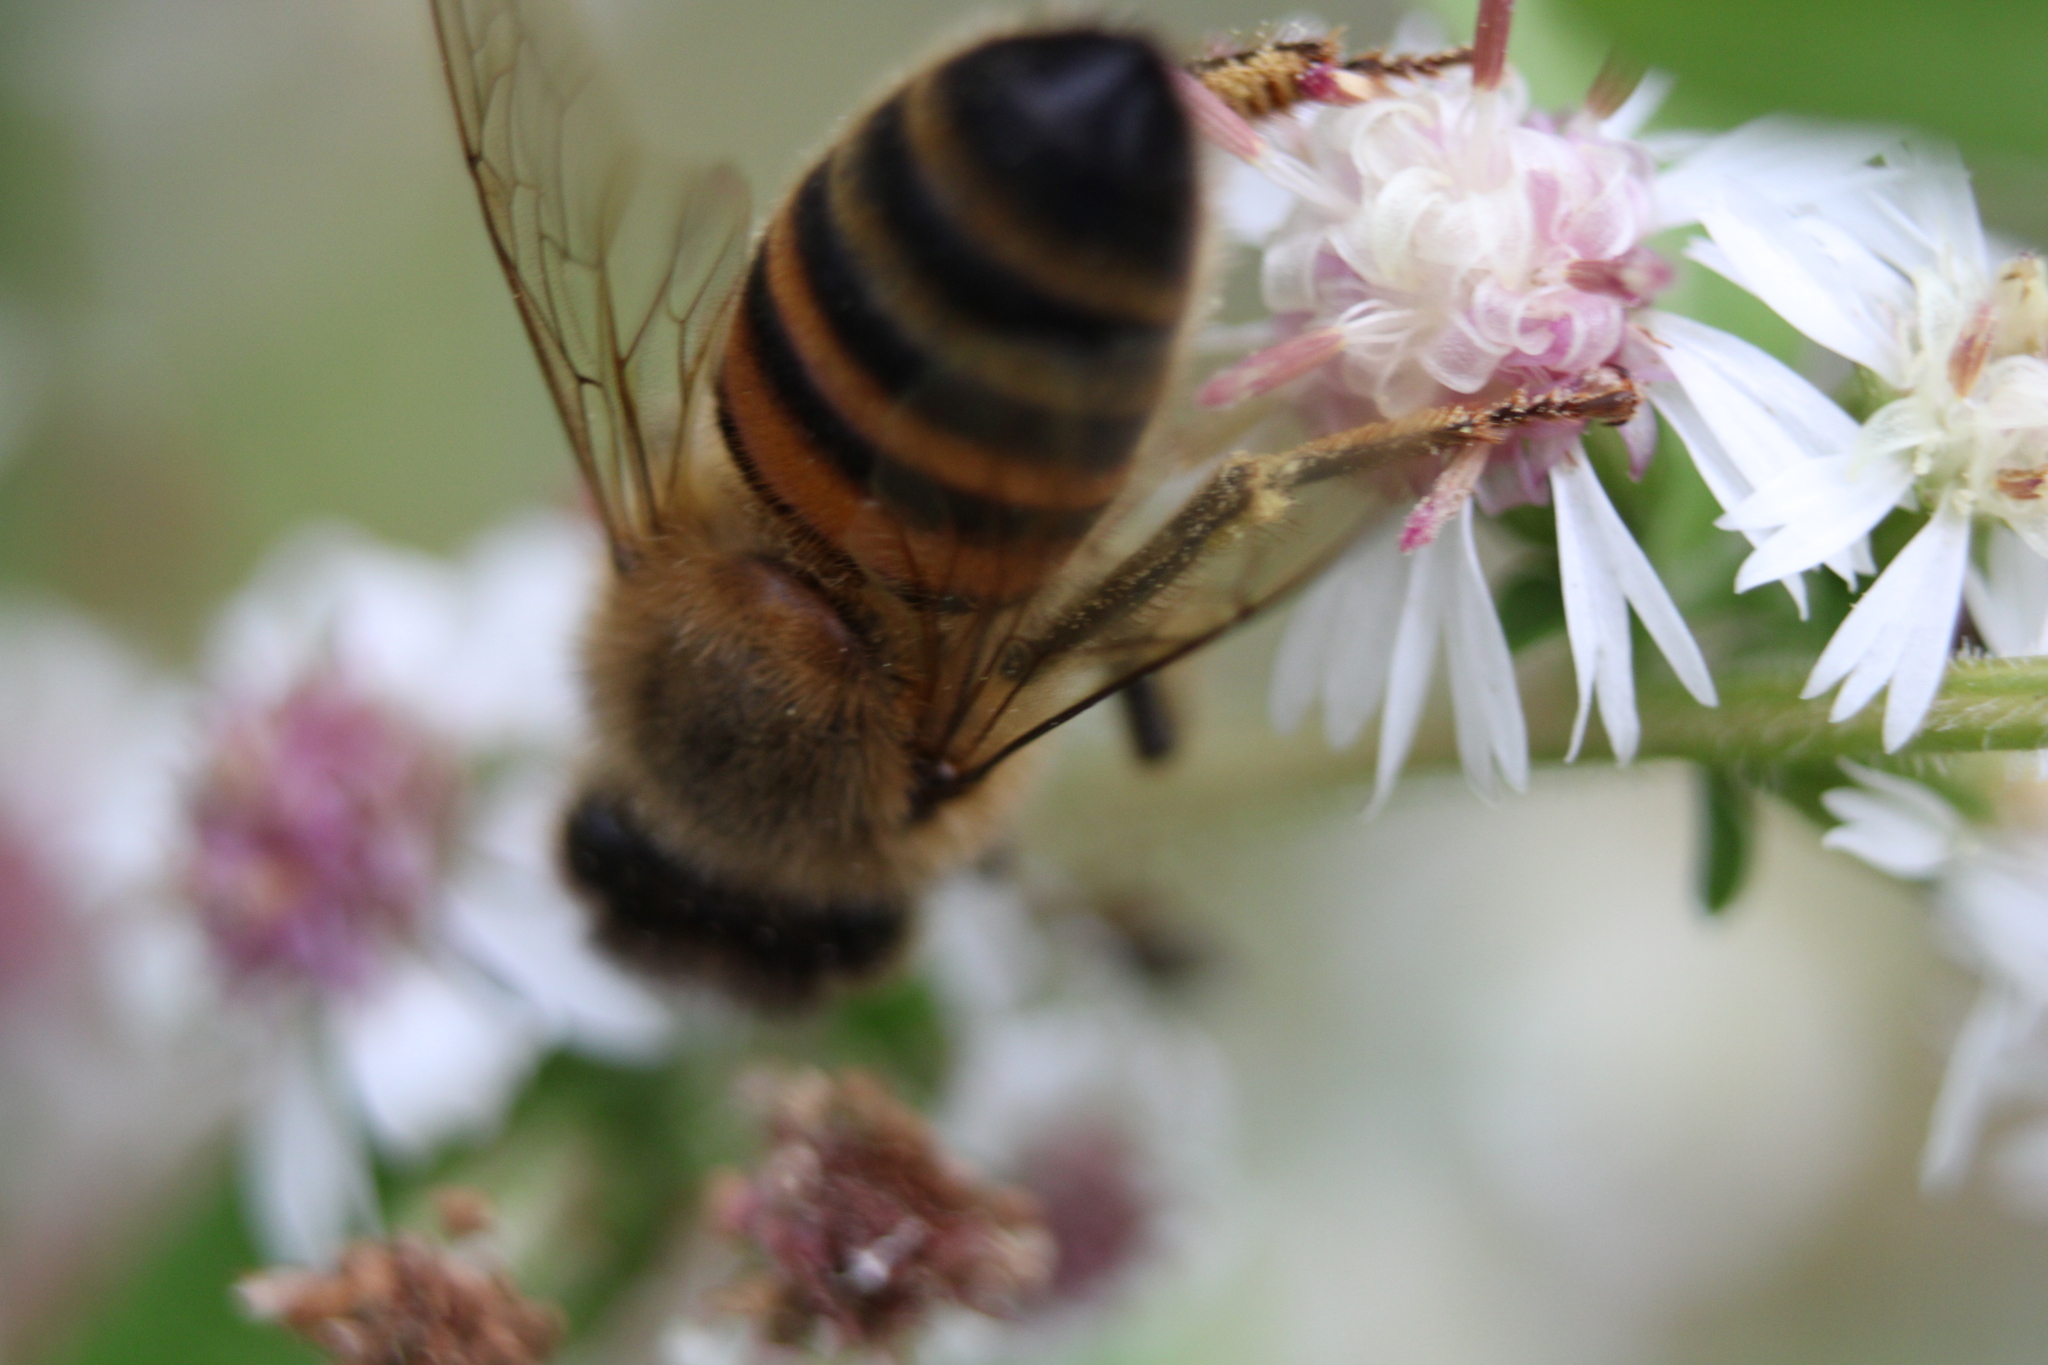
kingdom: Animalia
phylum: Arthropoda
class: Insecta
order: Hymenoptera
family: Apidae
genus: Apis
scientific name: Apis mellifera
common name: Honey bee
